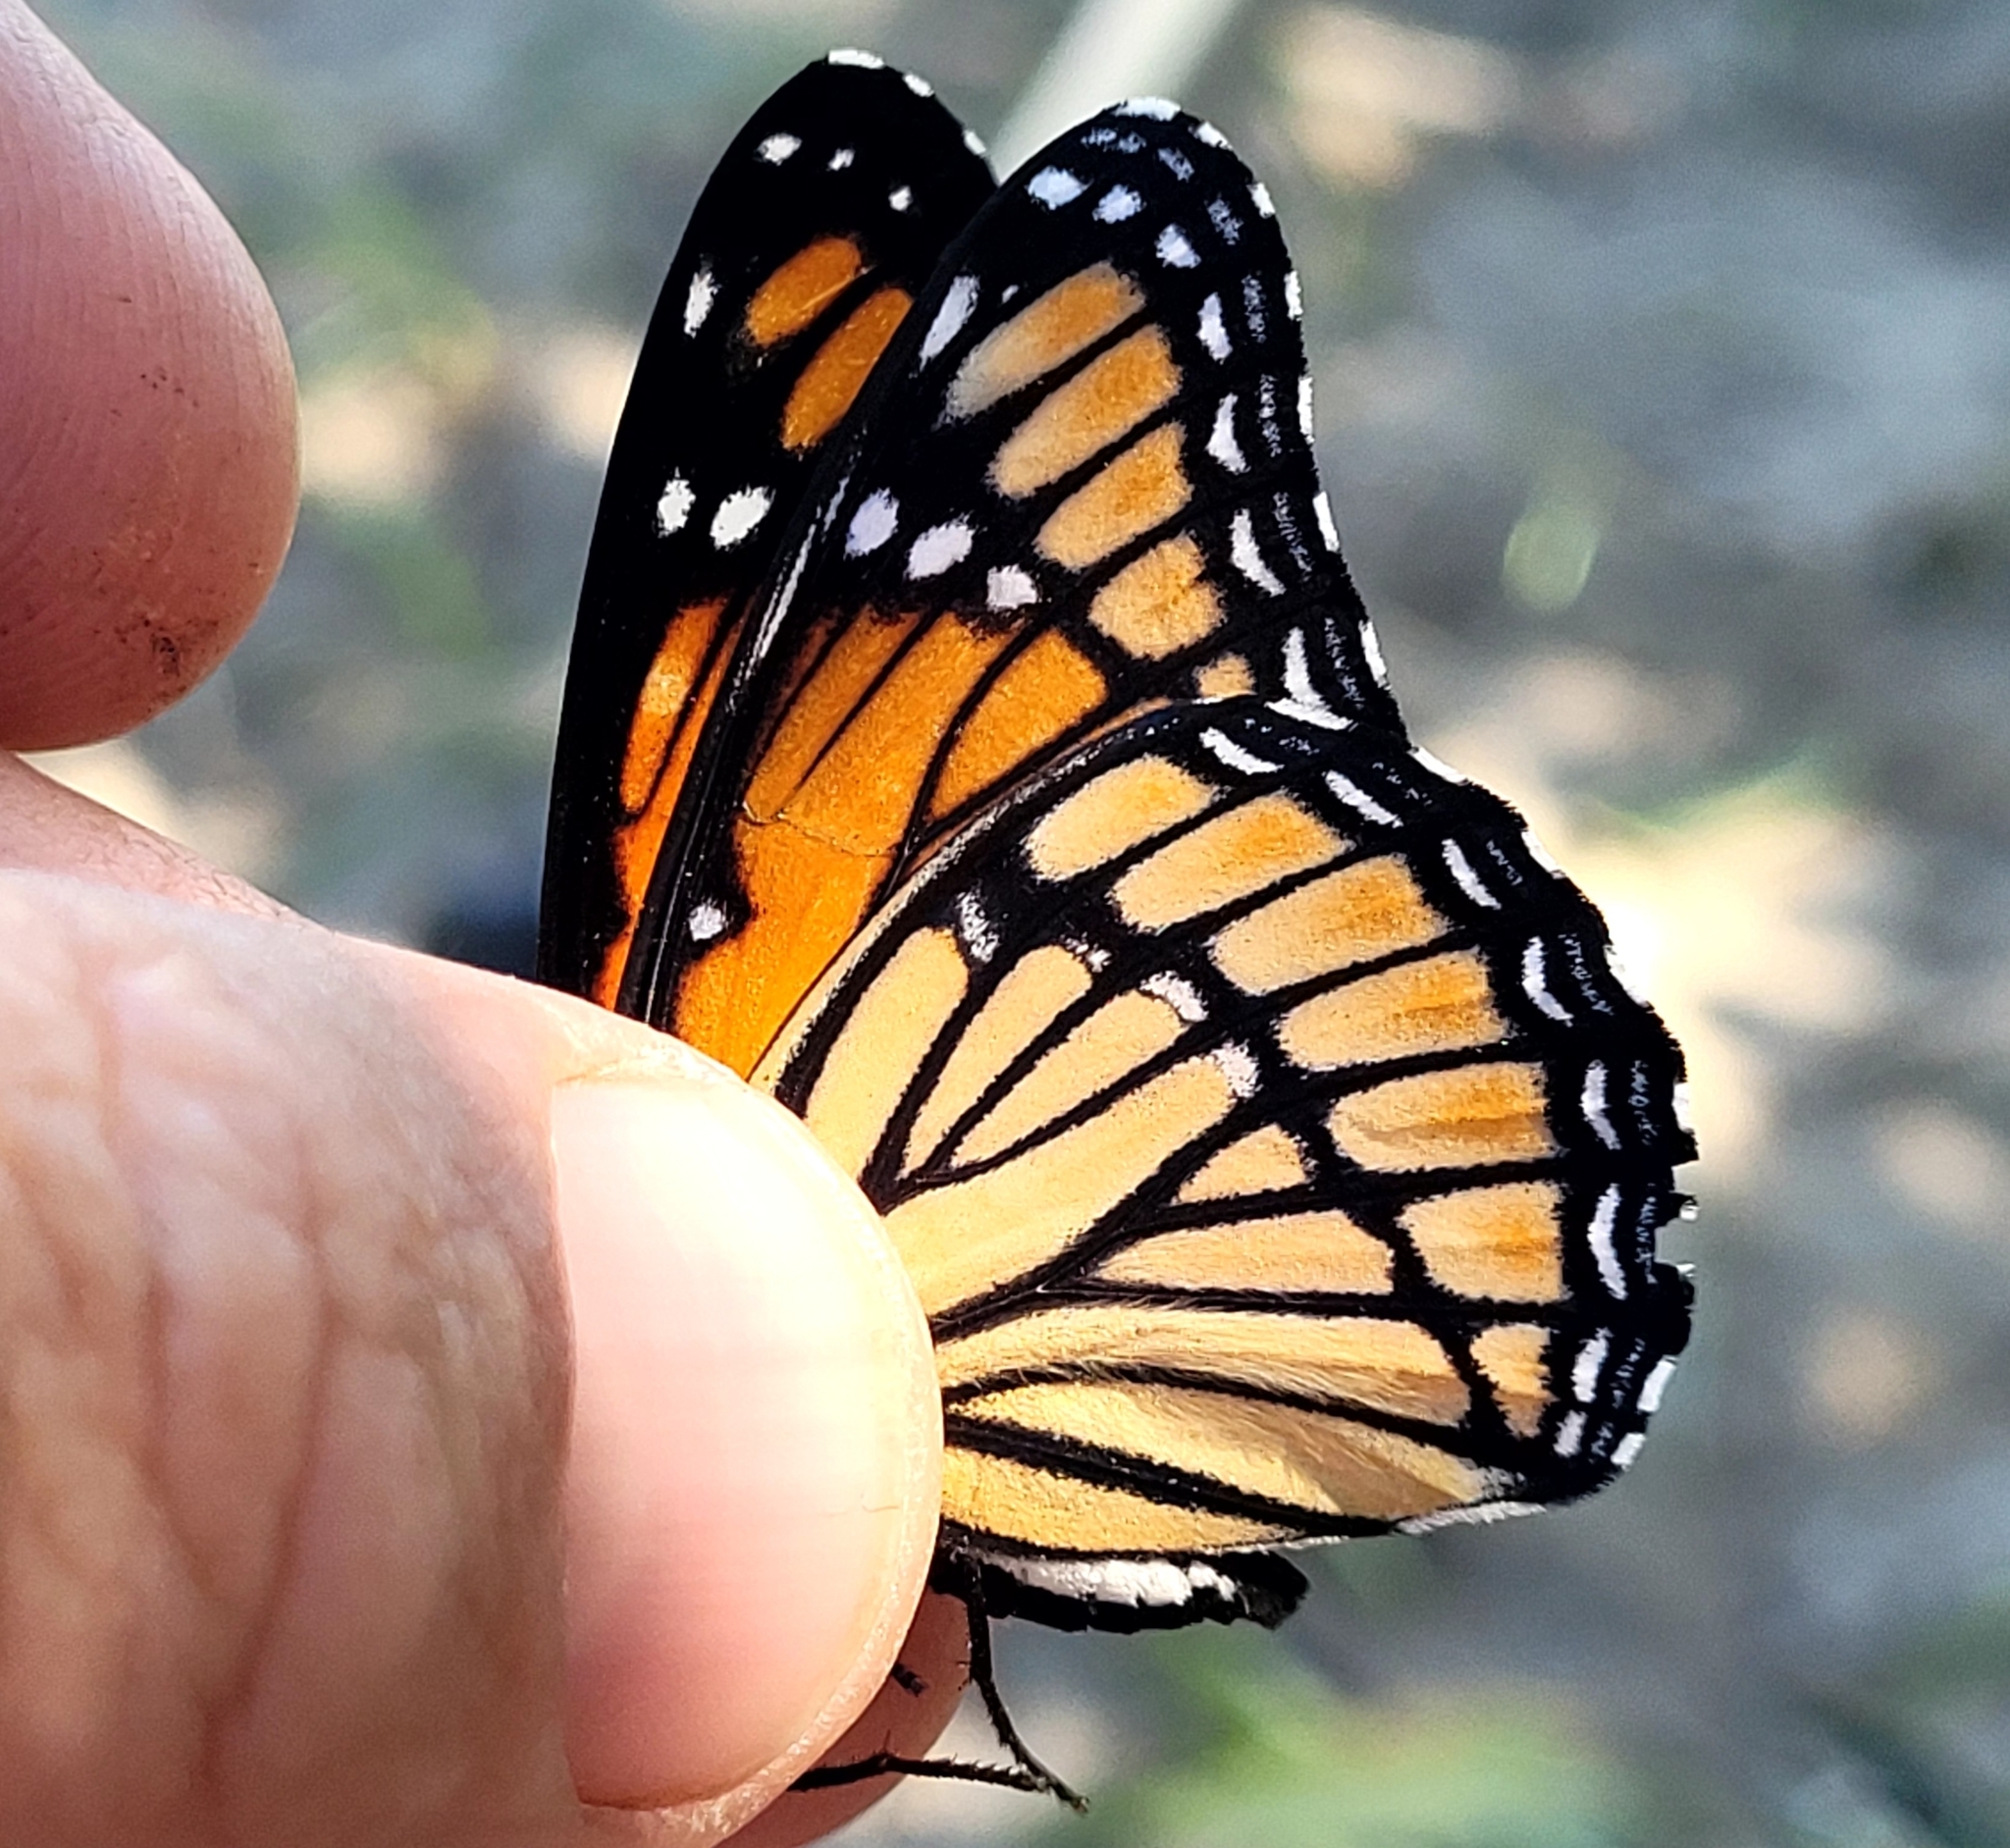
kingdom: Animalia
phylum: Arthropoda
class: Insecta
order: Lepidoptera
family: Nymphalidae
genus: Limenitis
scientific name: Limenitis archippus
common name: Viceroy
